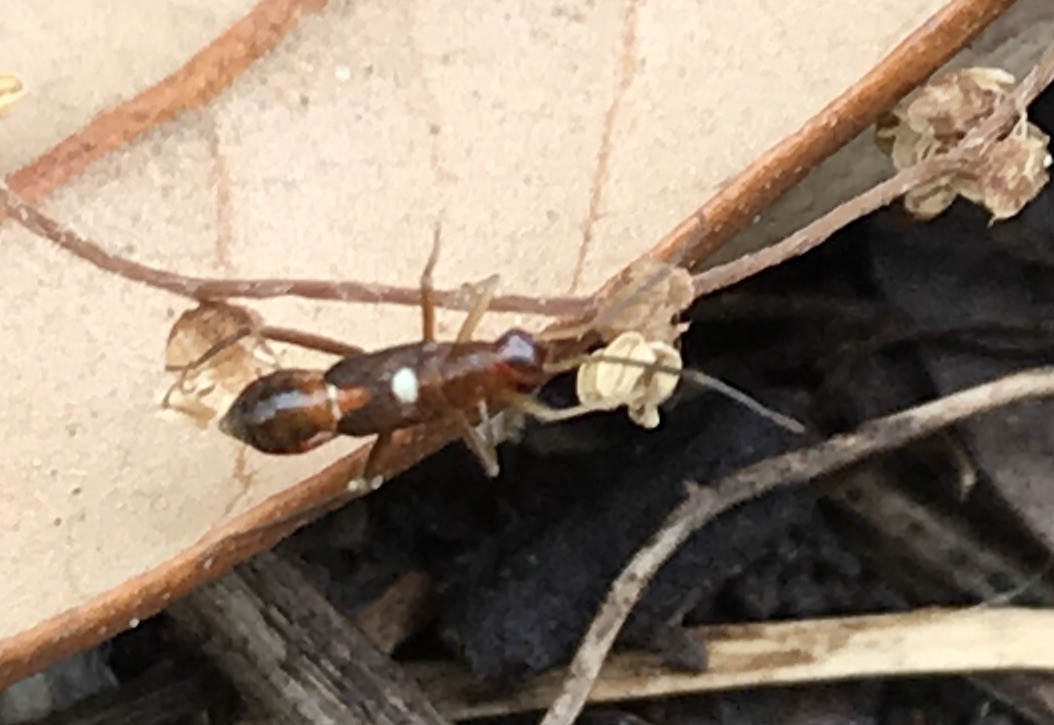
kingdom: Animalia
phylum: Arthropoda
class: Insecta
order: Hemiptera
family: Miridae
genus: Pseudoxenetus
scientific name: Pseudoxenetus regalis
